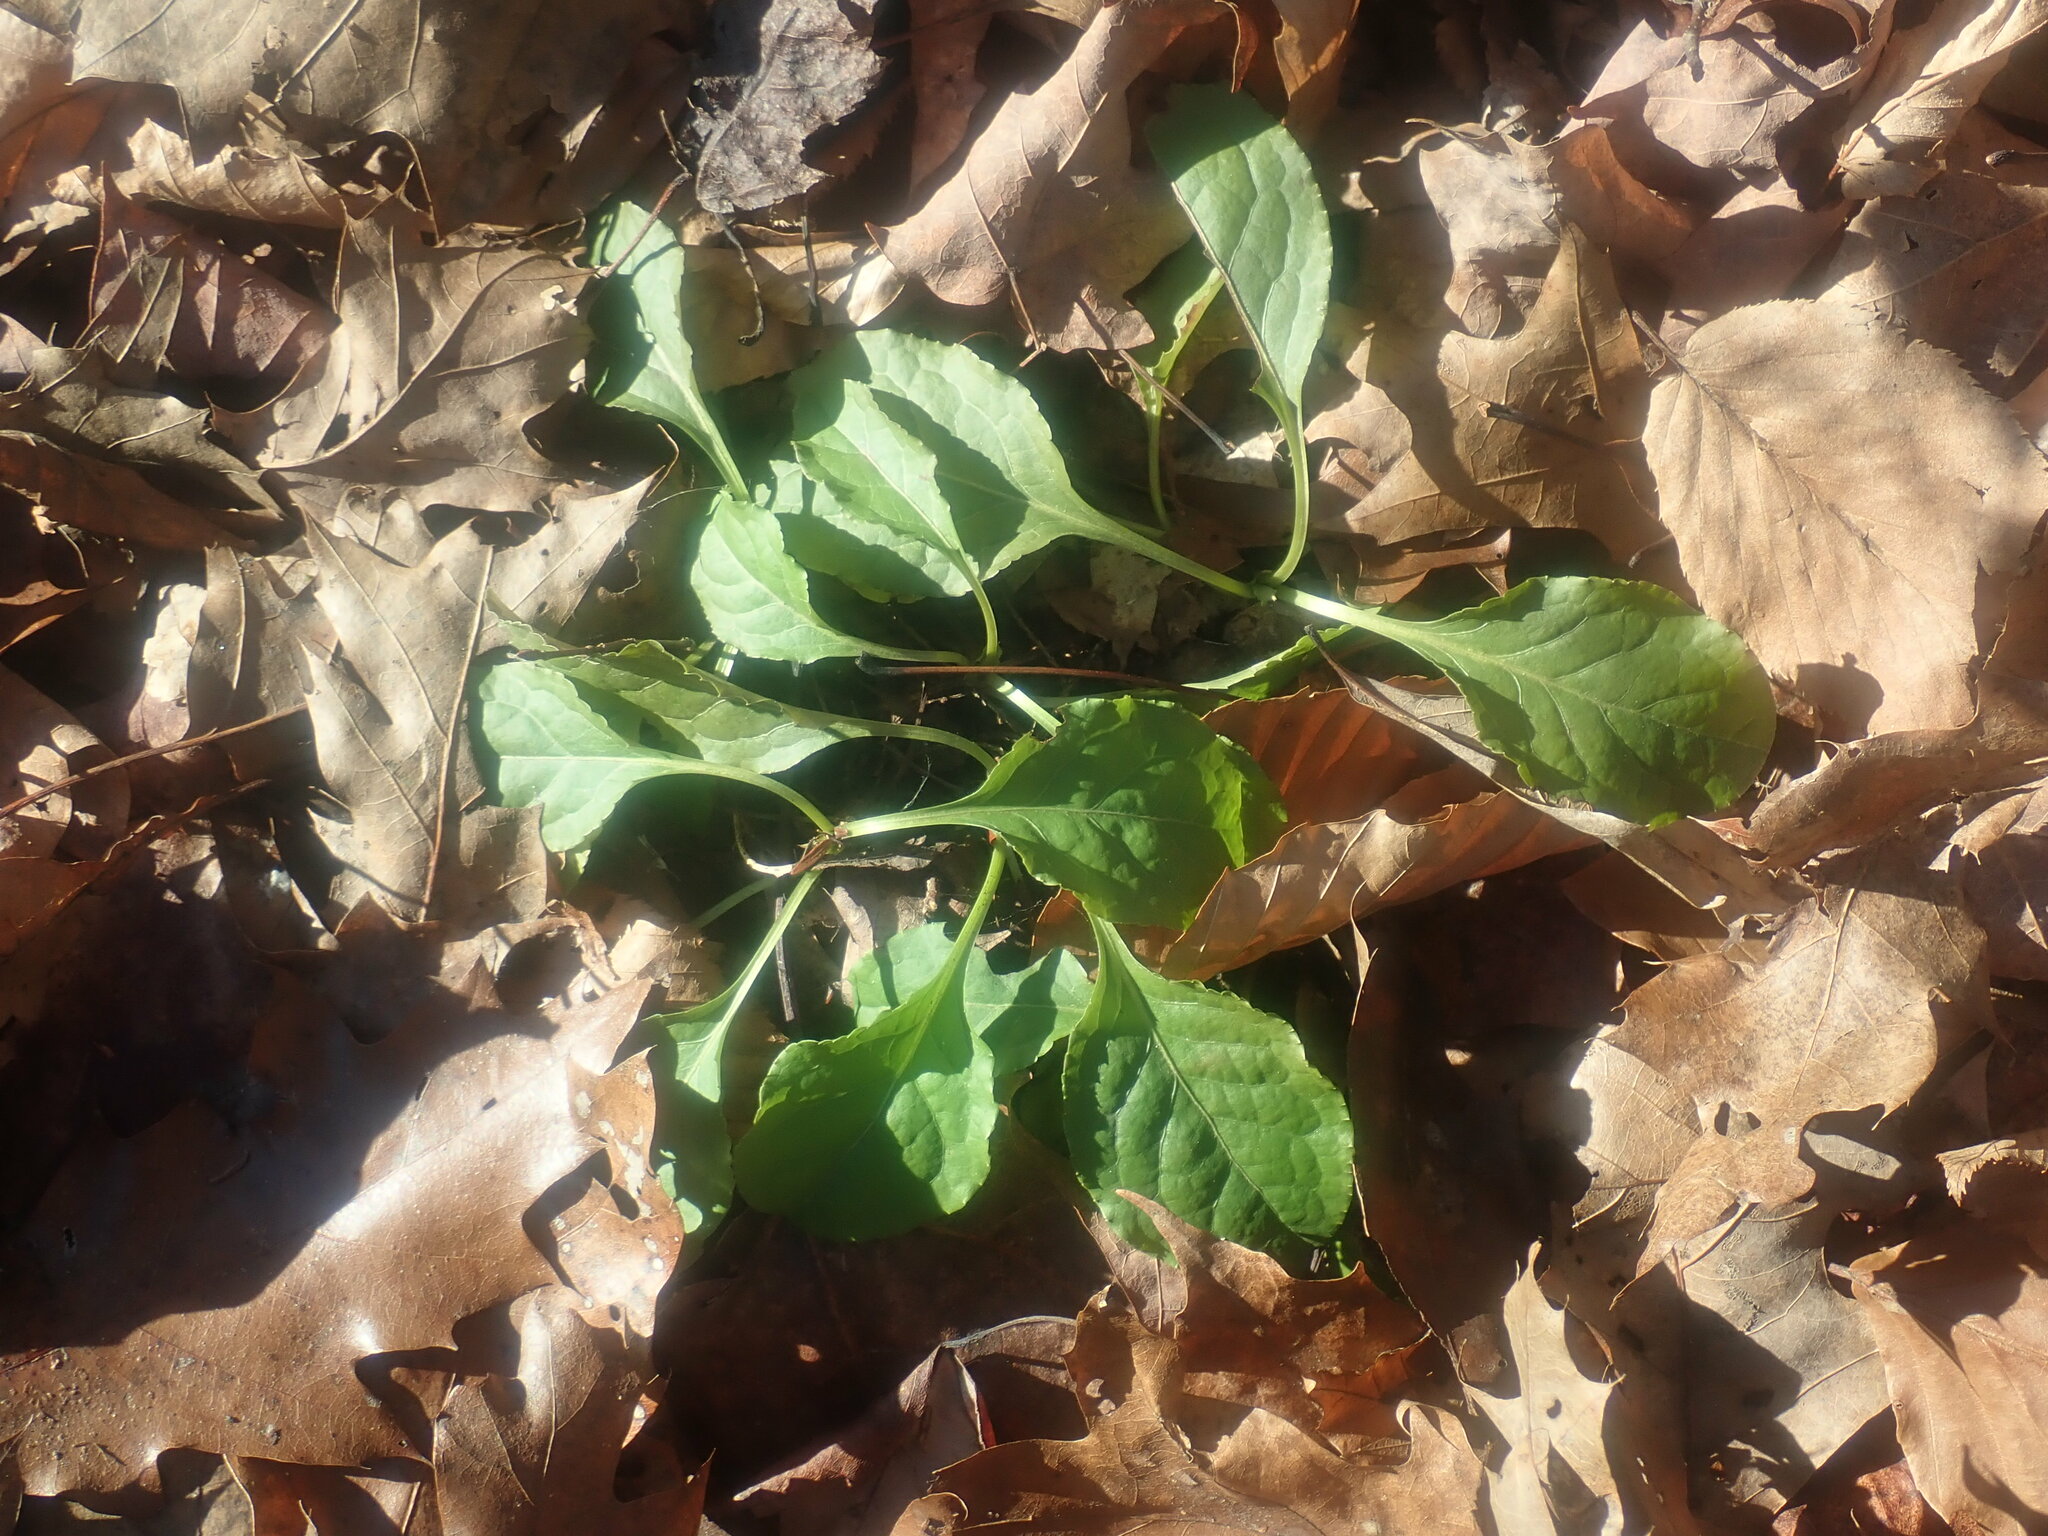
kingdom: Plantae
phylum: Tracheophyta
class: Magnoliopsida
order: Ericales
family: Ericaceae
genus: Pyrola
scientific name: Pyrola elliptica
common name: Shinleaf
